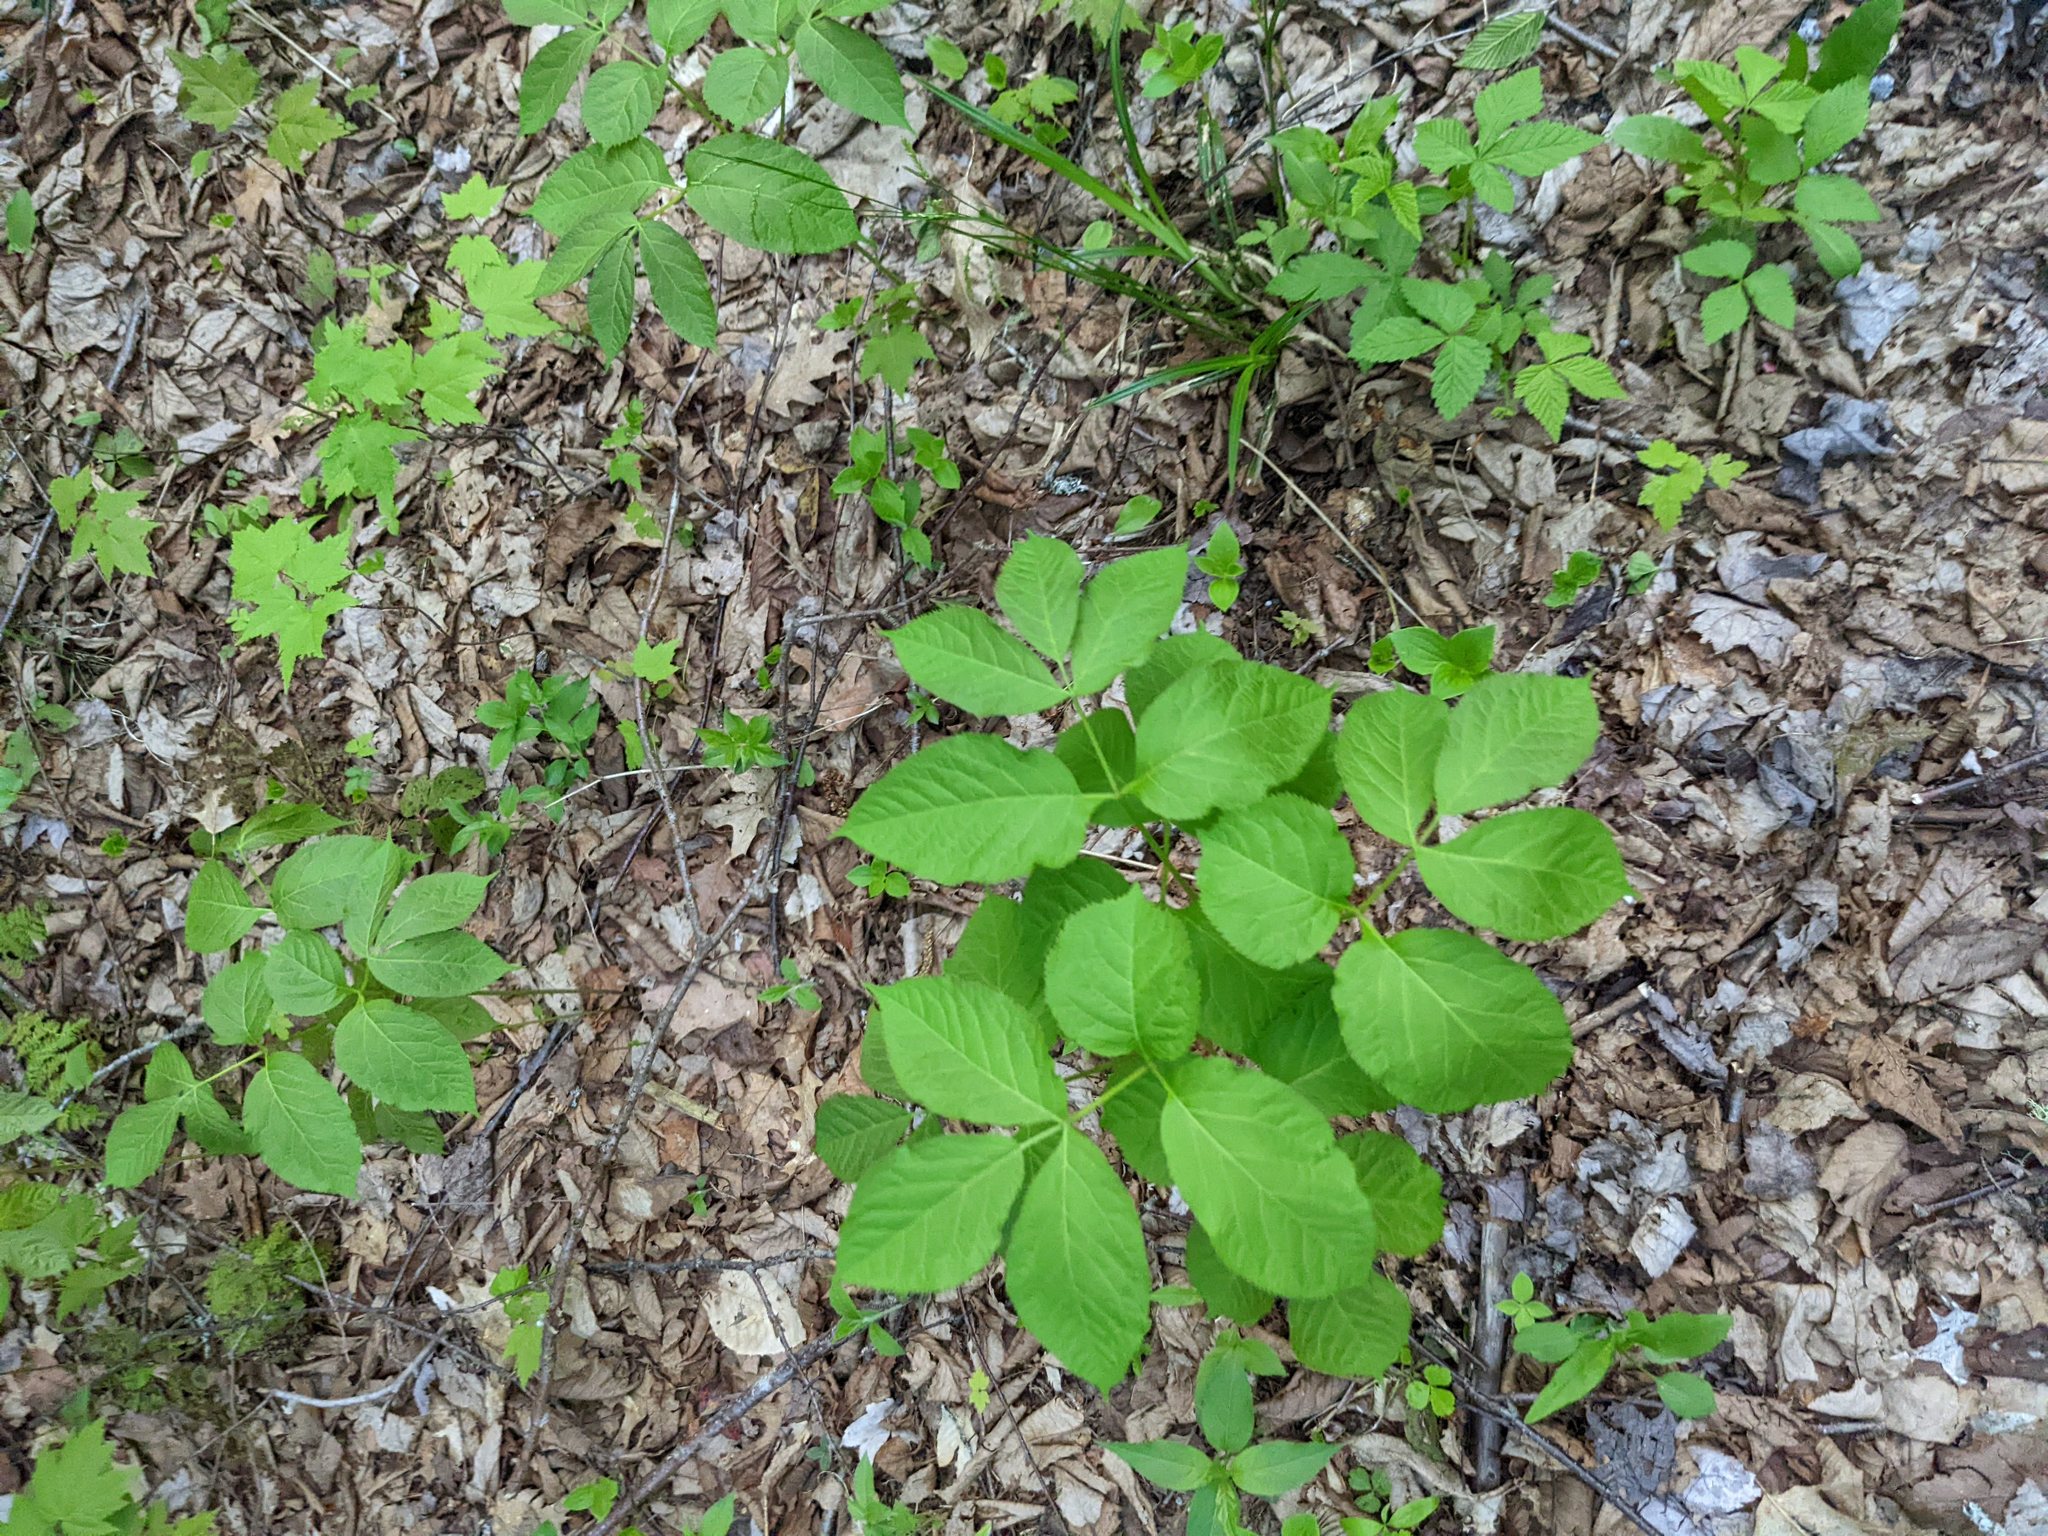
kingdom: Plantae
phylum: Tracheophyta
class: Magnoliopsida
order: Apiales
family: Araliaceae
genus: Aralia
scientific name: Aralia nudicaulis
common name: Wild sarsaparilla
